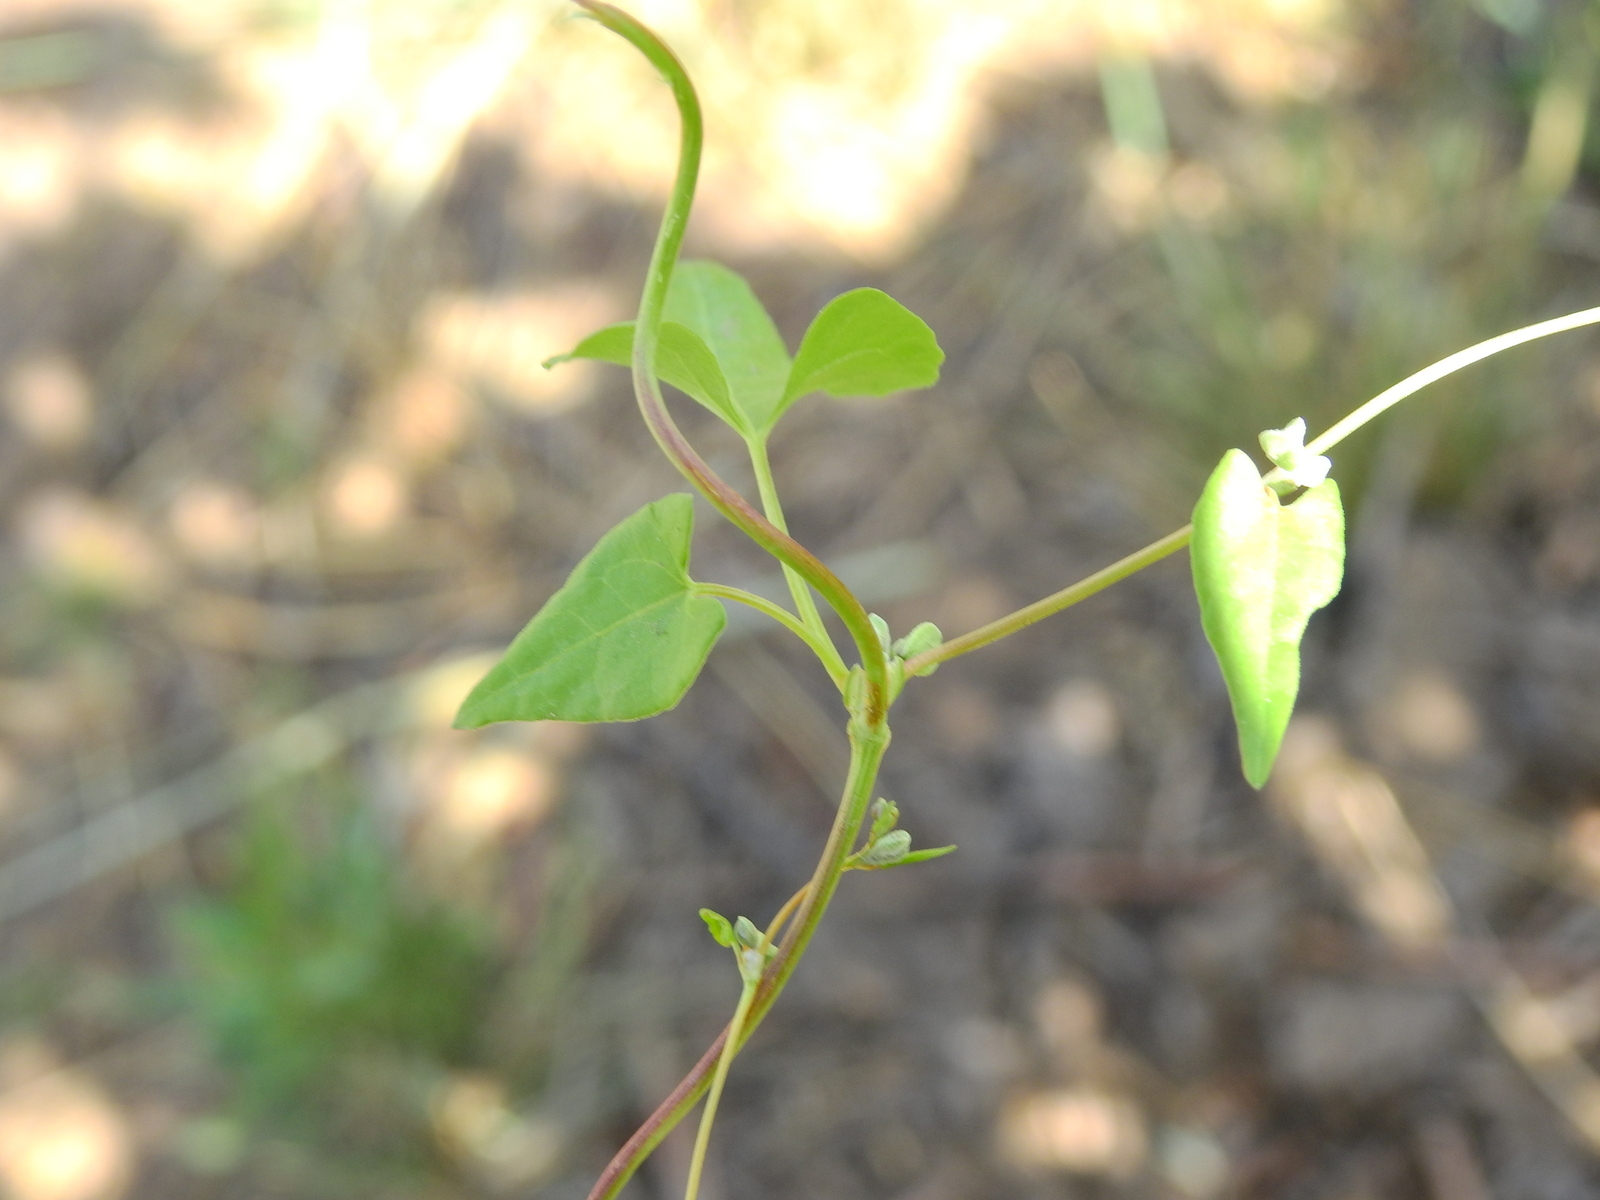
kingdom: Plantae
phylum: Tracheophyta
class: Magnoliopsida
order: Caryophyllales
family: Polygonaceae
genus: Fallopia
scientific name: Fallopia convolvulus
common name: Black bindweed
